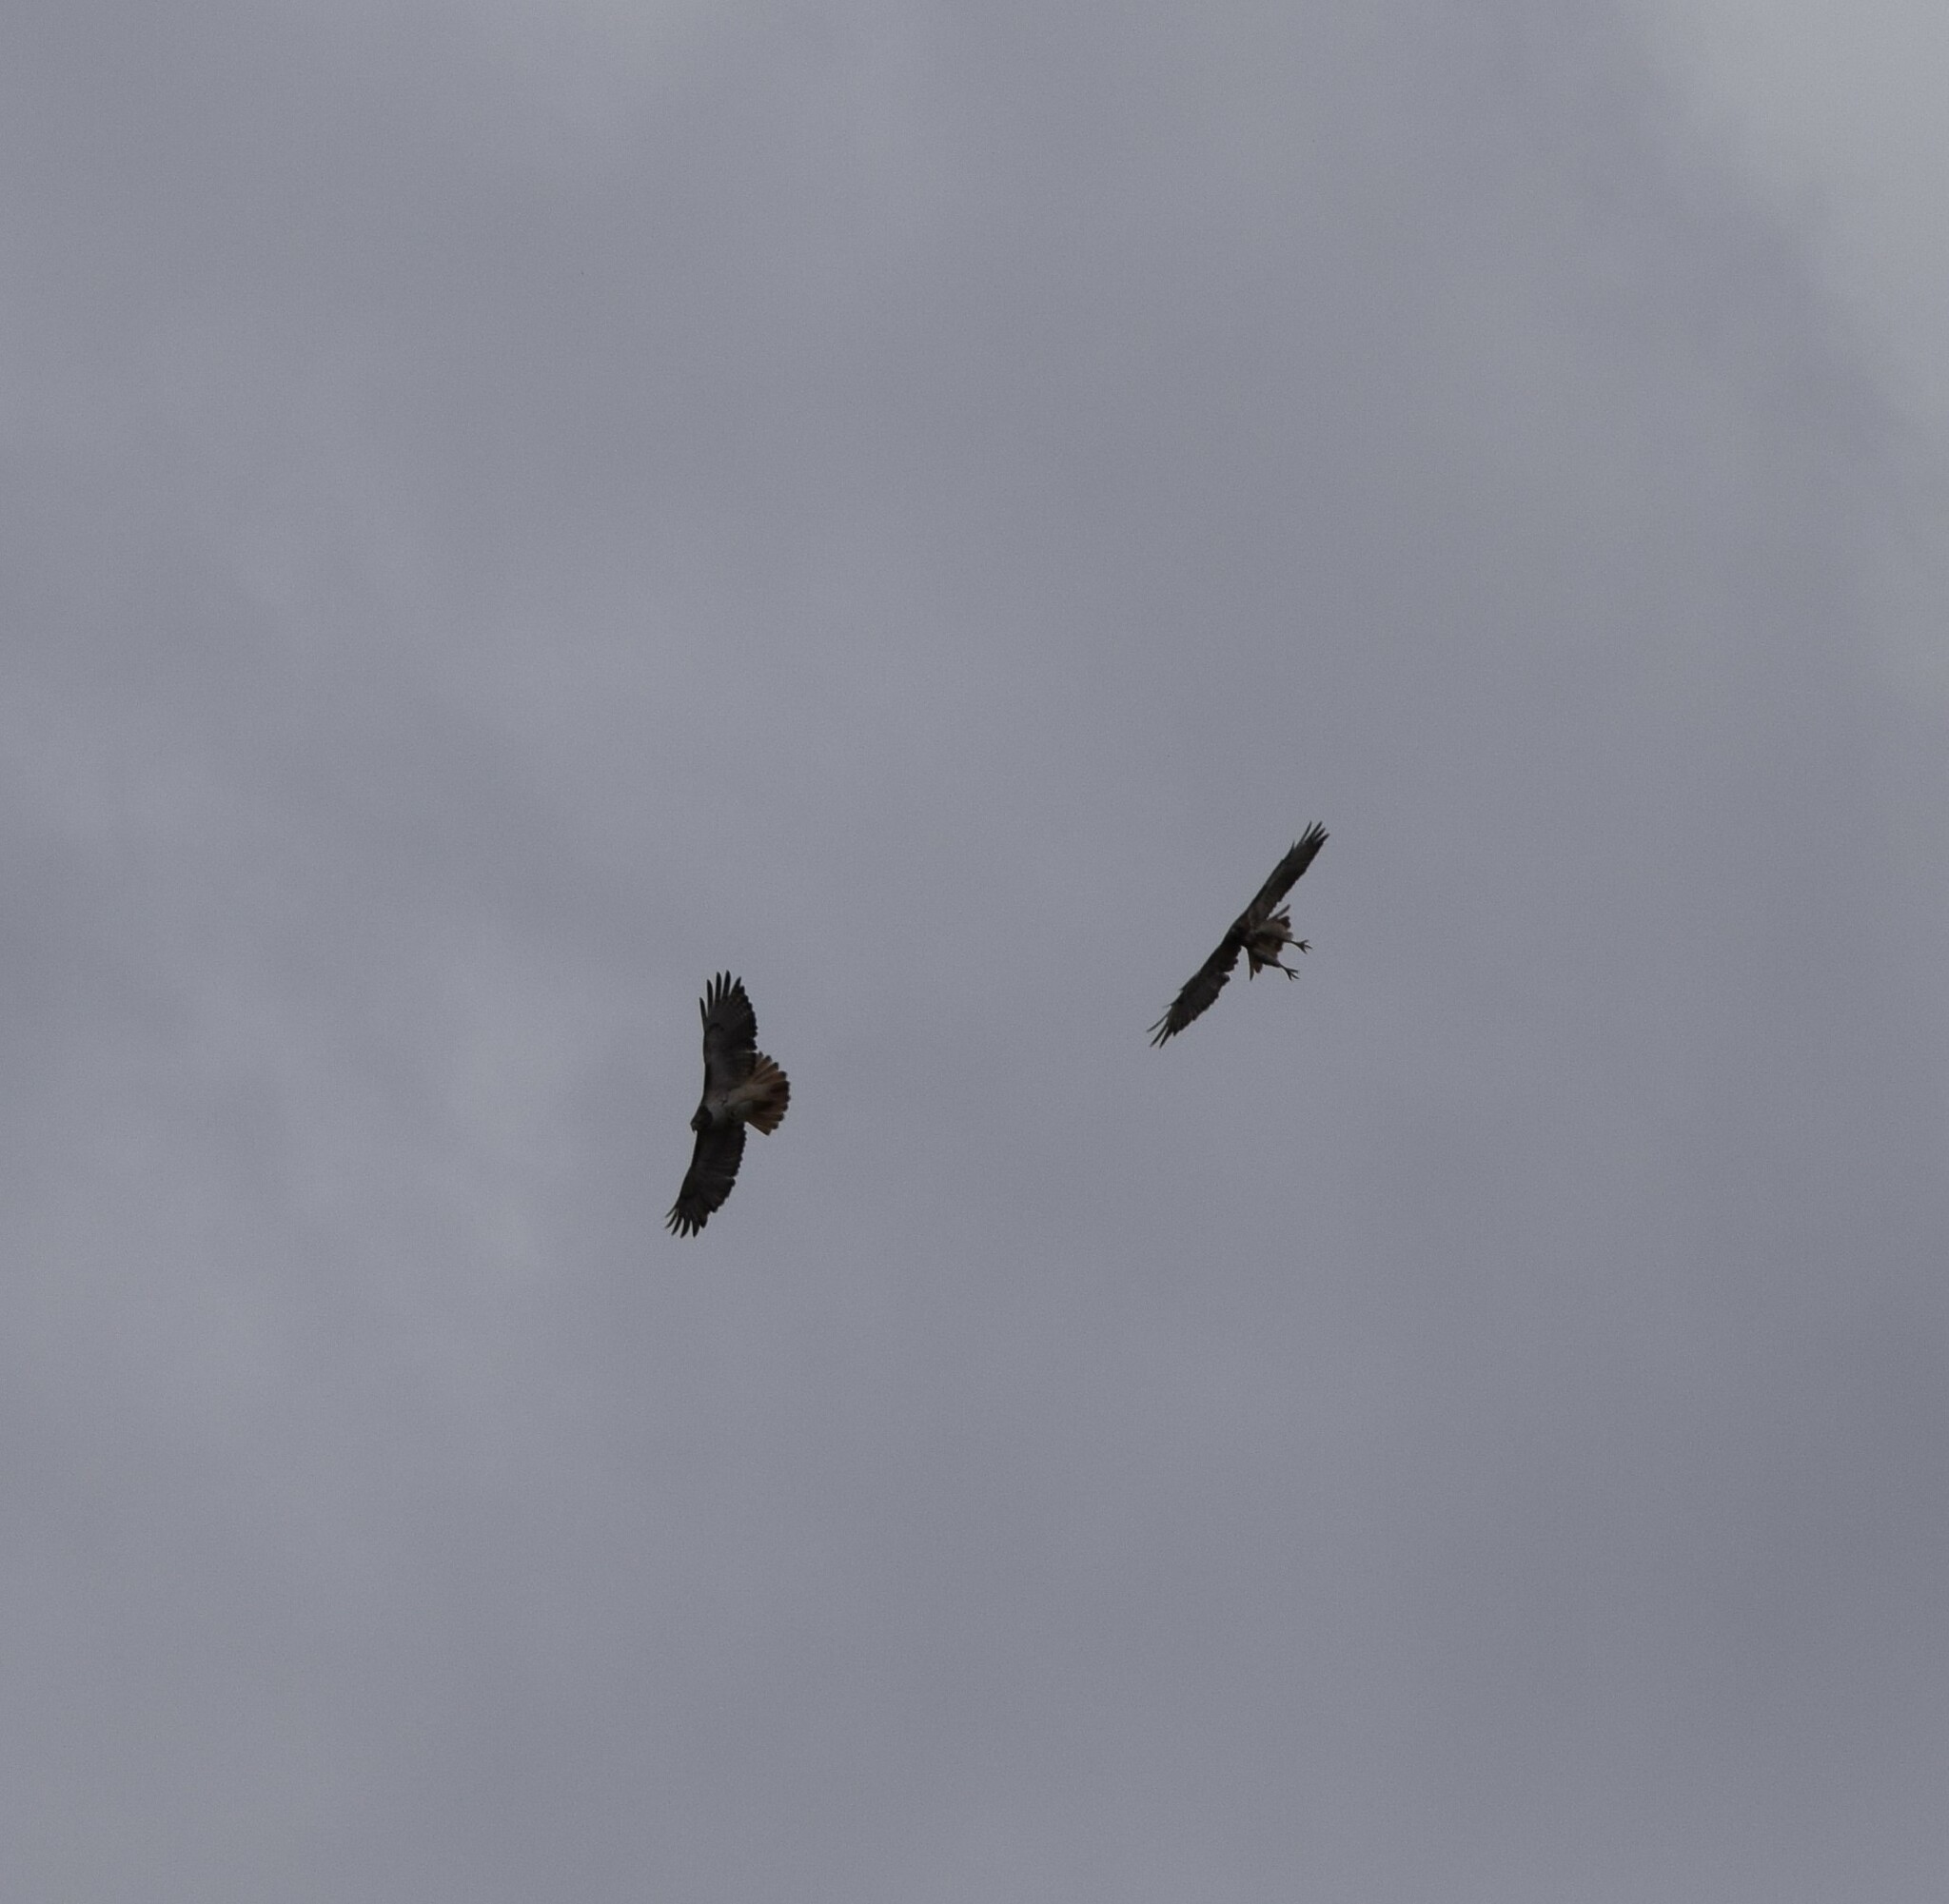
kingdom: Animalia
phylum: Chordata
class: Aves
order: Accipitriformes
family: Accipitridae
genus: Buteo
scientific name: Buteo jamaicensis
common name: Red-tailed hawk
